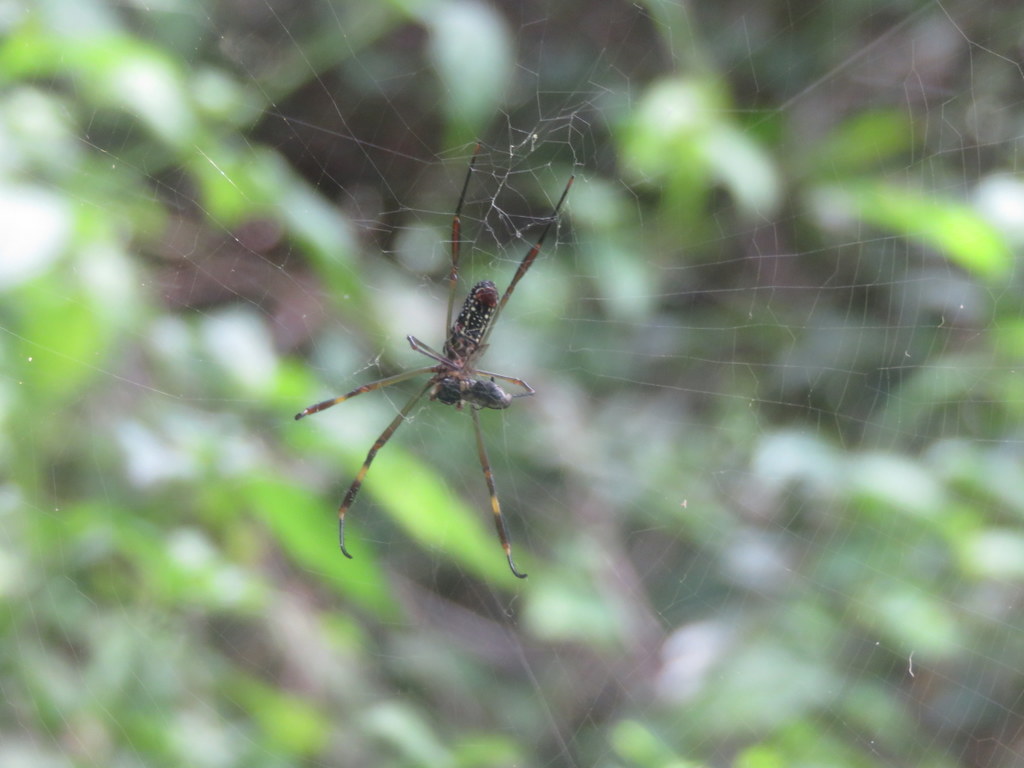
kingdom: Animalia
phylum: Arthropoda
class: Arachnida
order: Araneae
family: Araneidae
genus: Trichonephila
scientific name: Trichonephila clavipes
